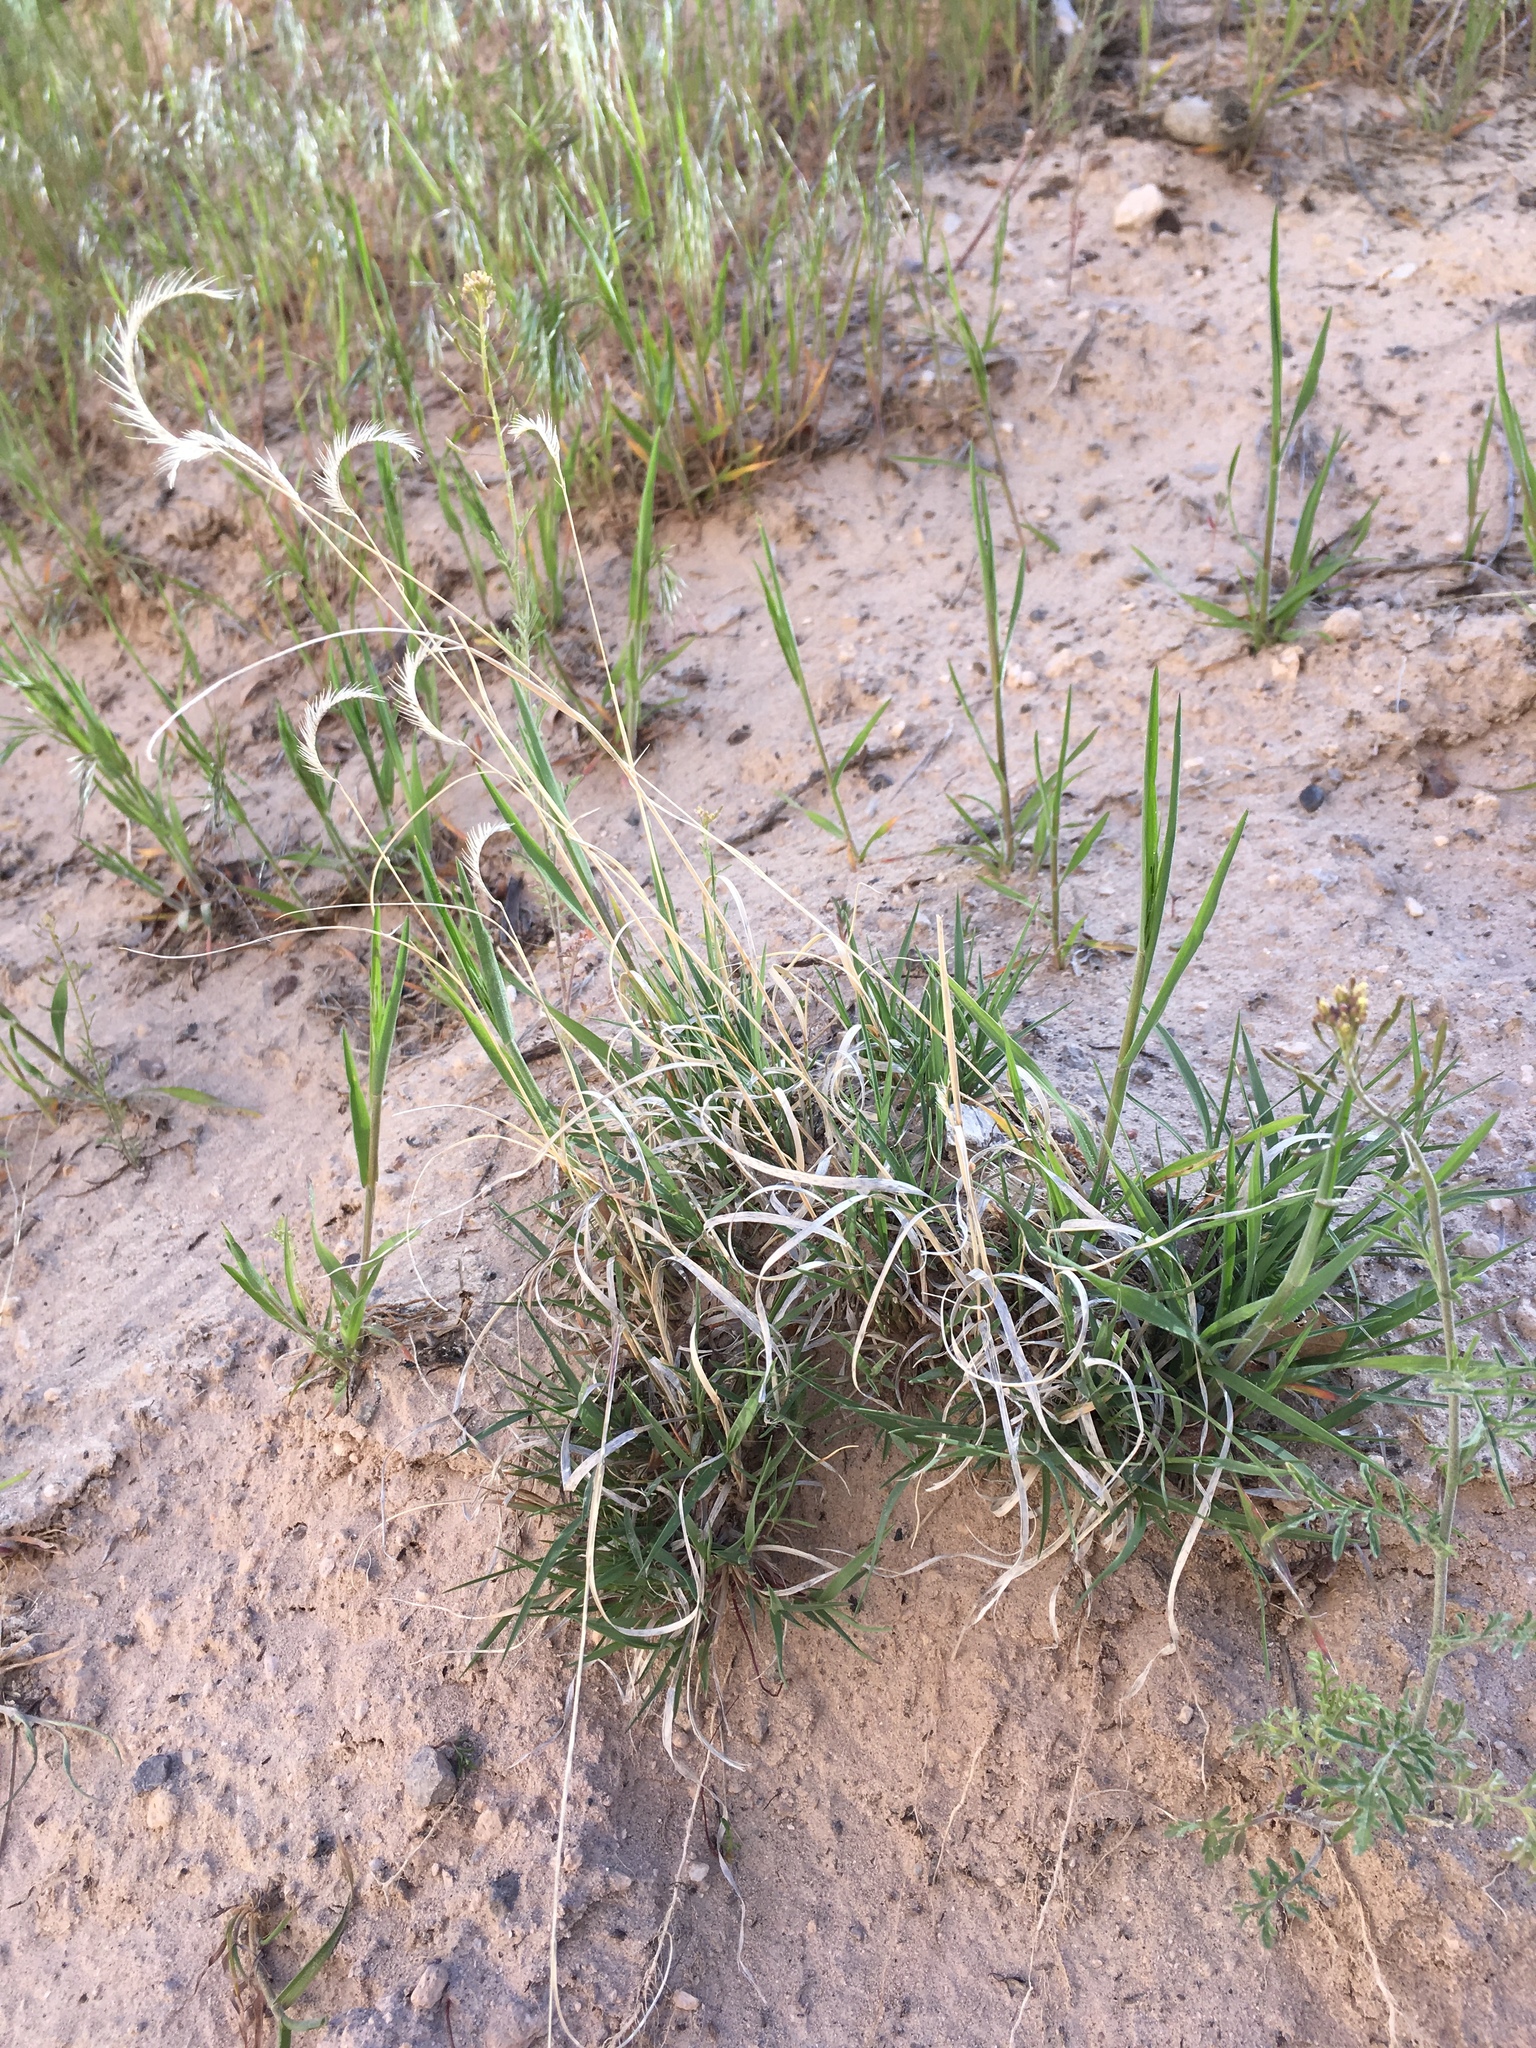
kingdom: Plantae
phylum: Tracheophyta
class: Liliopsida
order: Poales
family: Poaceae
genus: Bouteloua
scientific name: Bouteloua gracilis
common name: Blue grama
